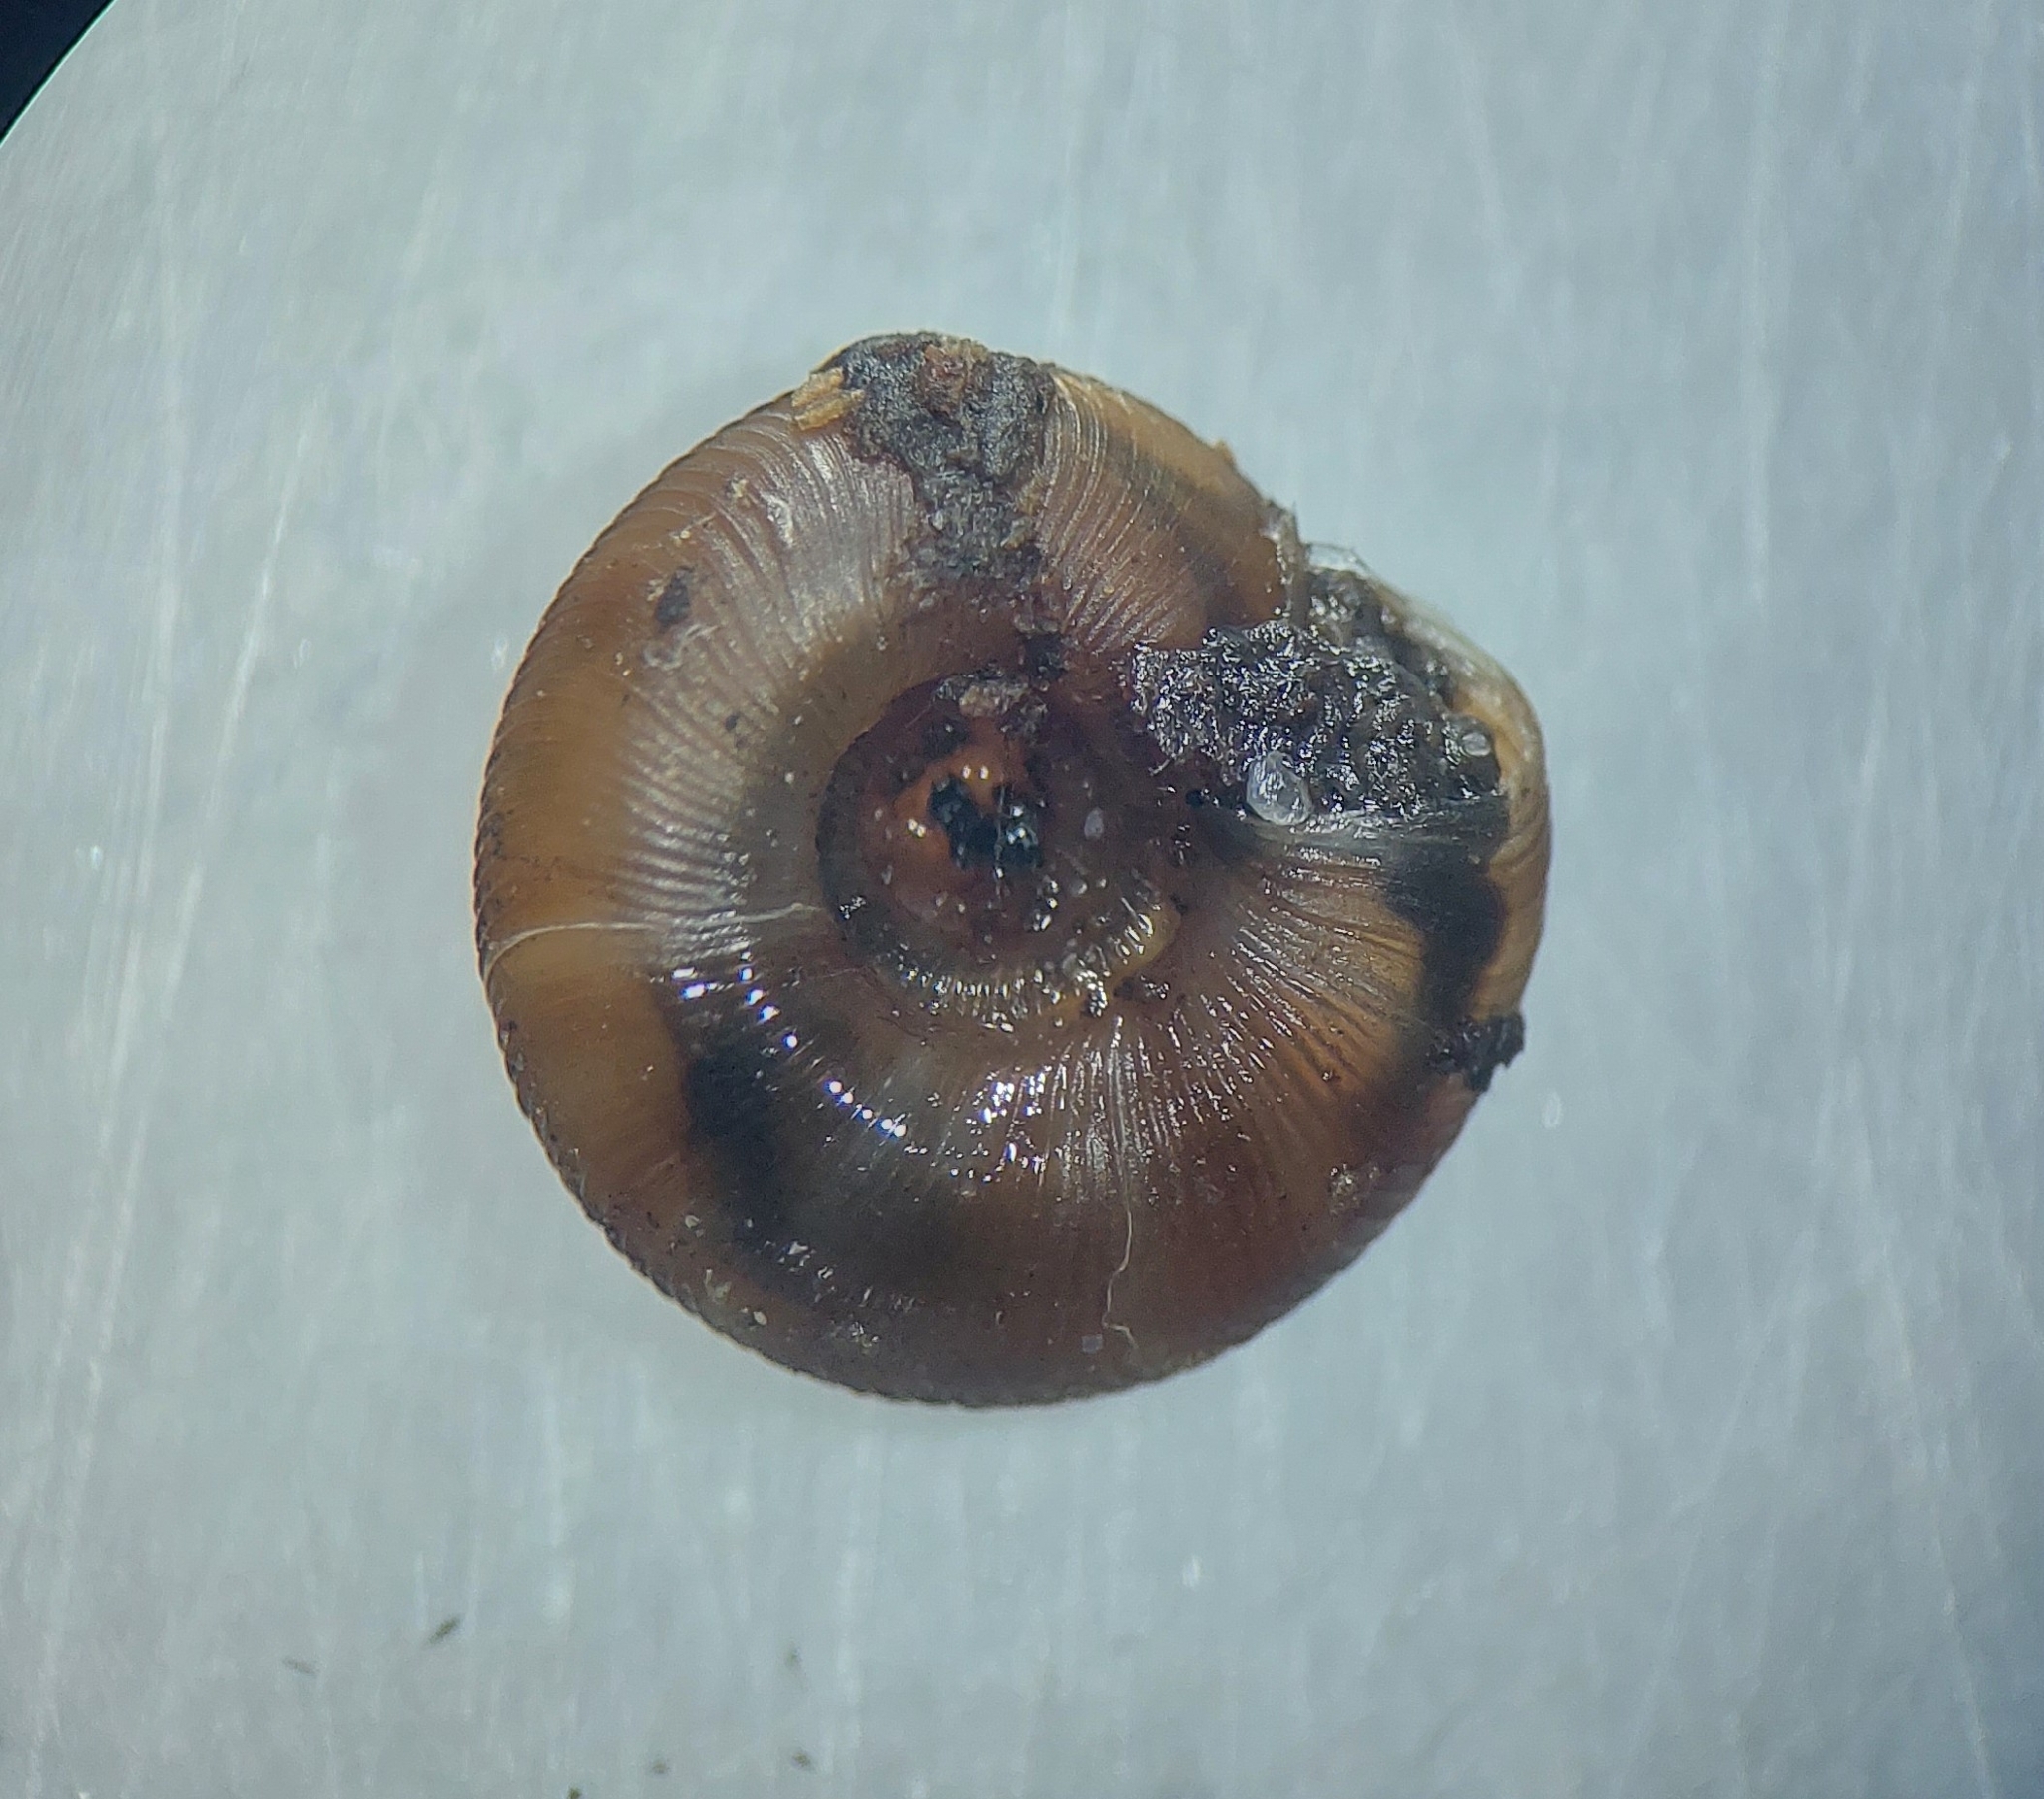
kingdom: Animalia
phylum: Mollusca
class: Gastropoda
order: Stylommatophora
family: Discidae
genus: Discus
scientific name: Discus rotundatus
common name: Rounded snail
